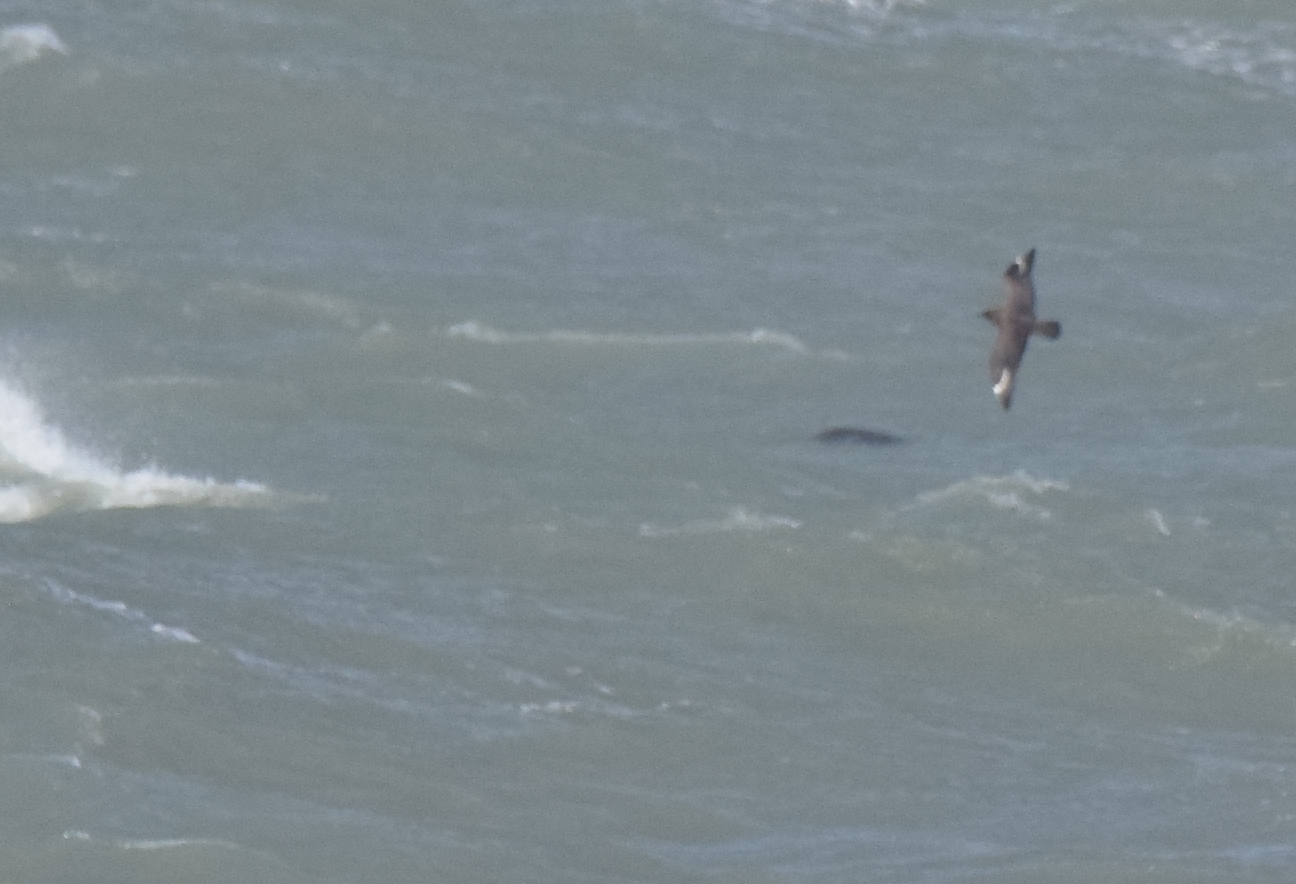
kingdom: Animalia
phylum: Chordata
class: Aves
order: Charadriiformes
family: Stercorariidae
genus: Stercorarius
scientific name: Stercorarius skua
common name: Great skua
